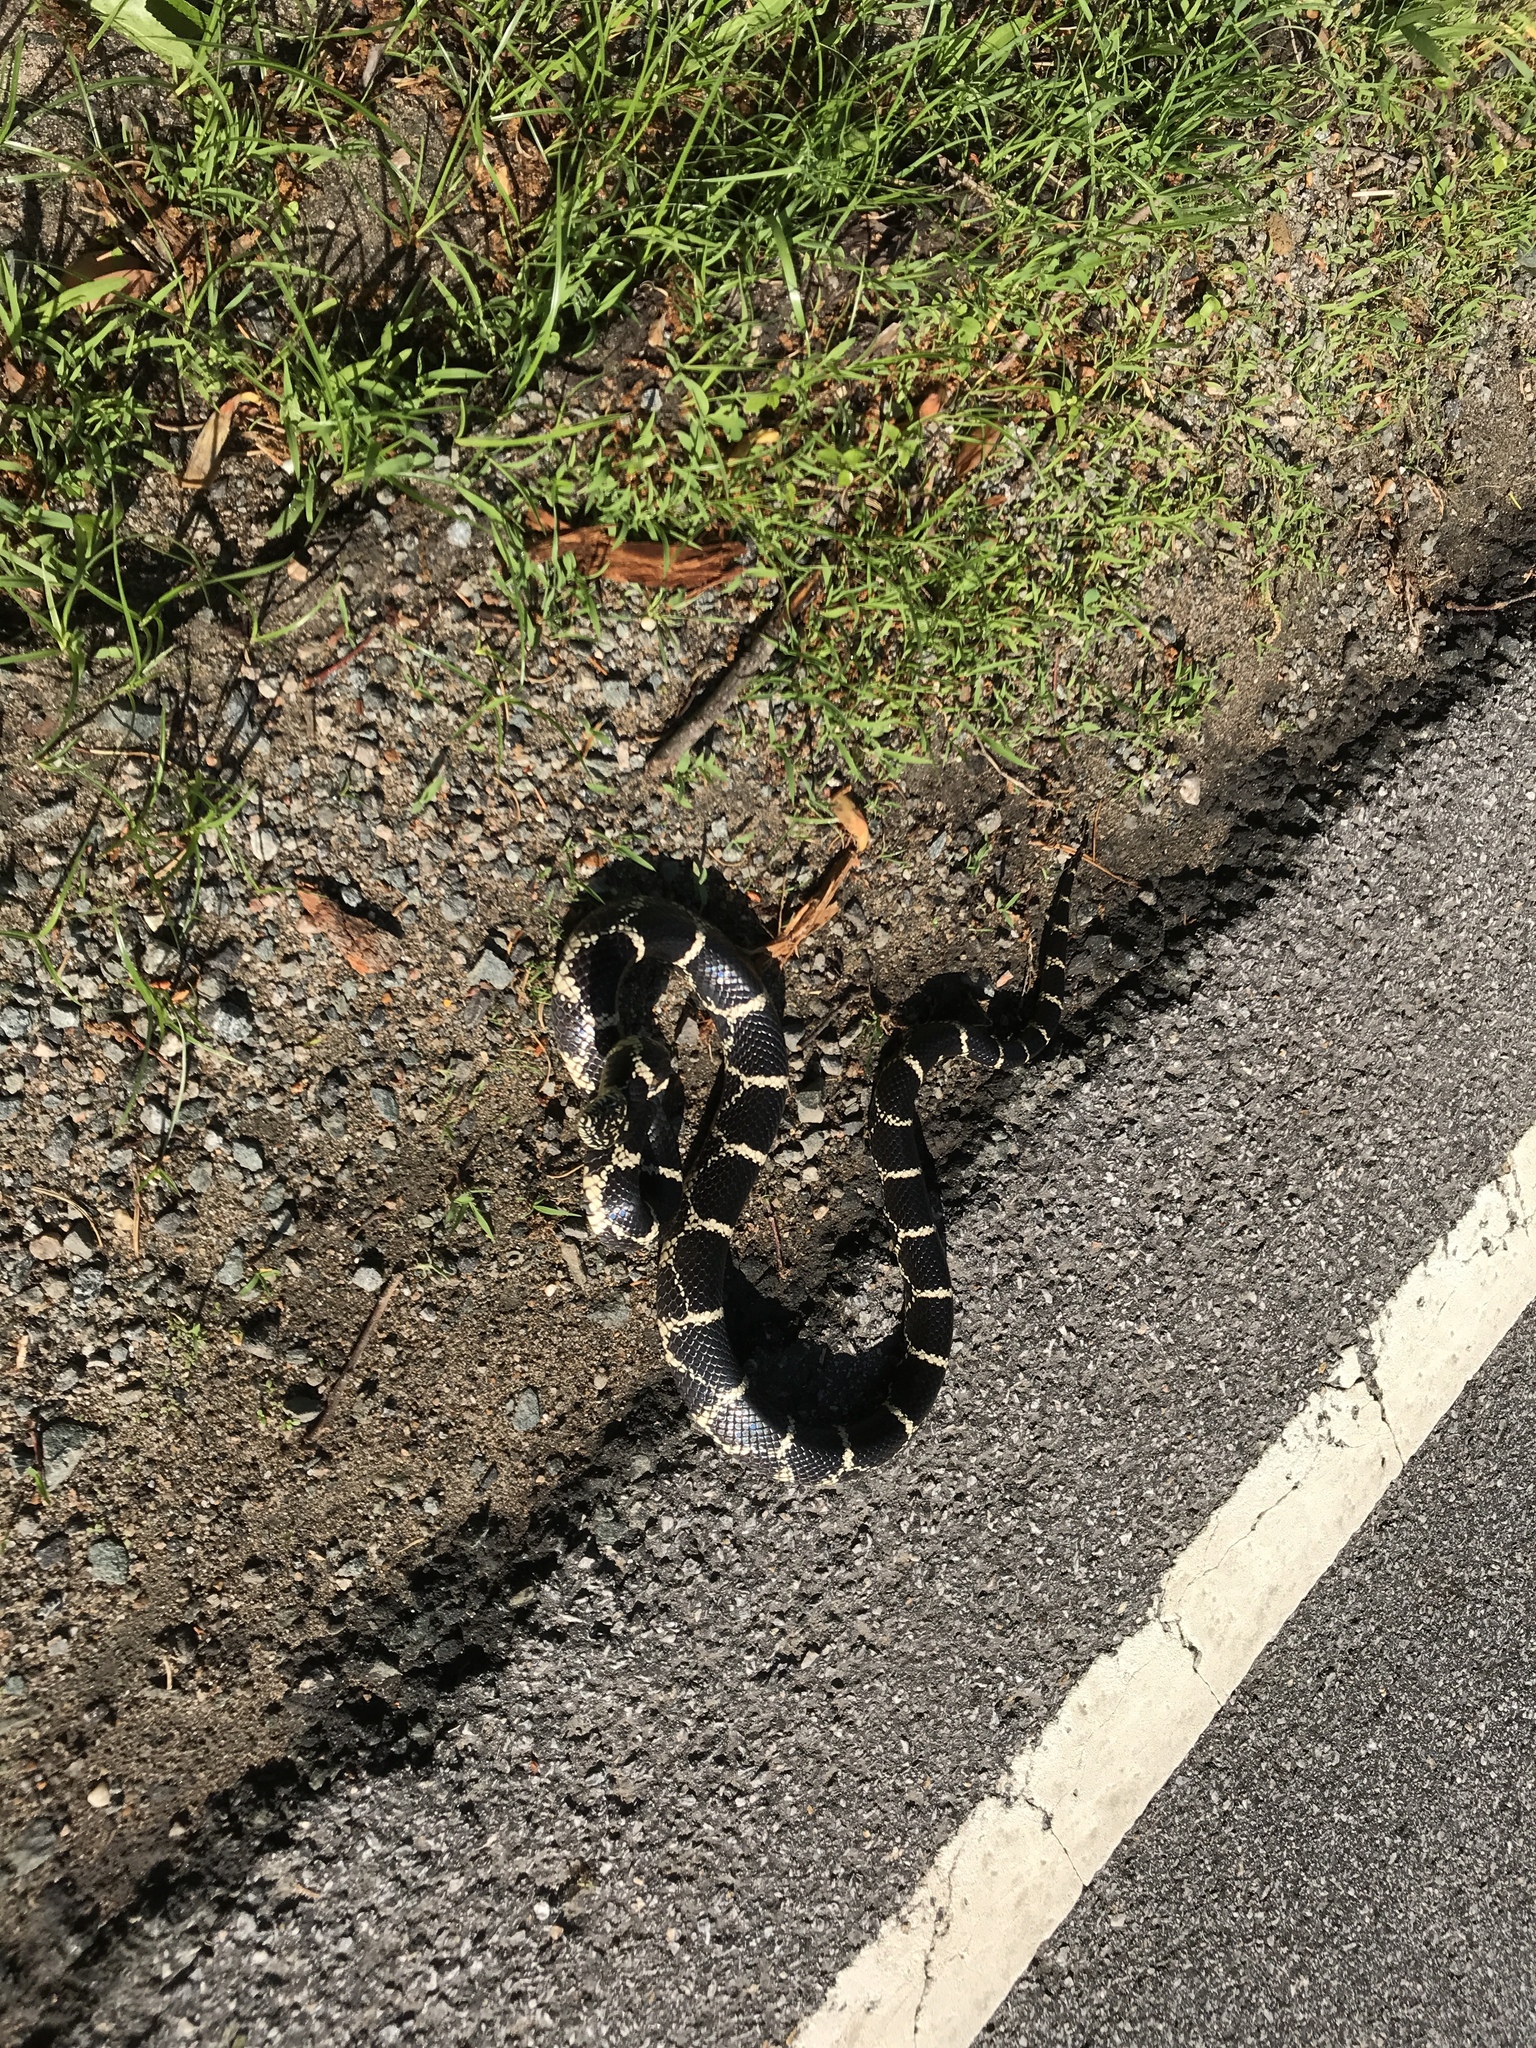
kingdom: Animalia
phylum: Chordata
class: Squamata
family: Colubridae
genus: Lampropeltis
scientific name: Lampropeltis getula
